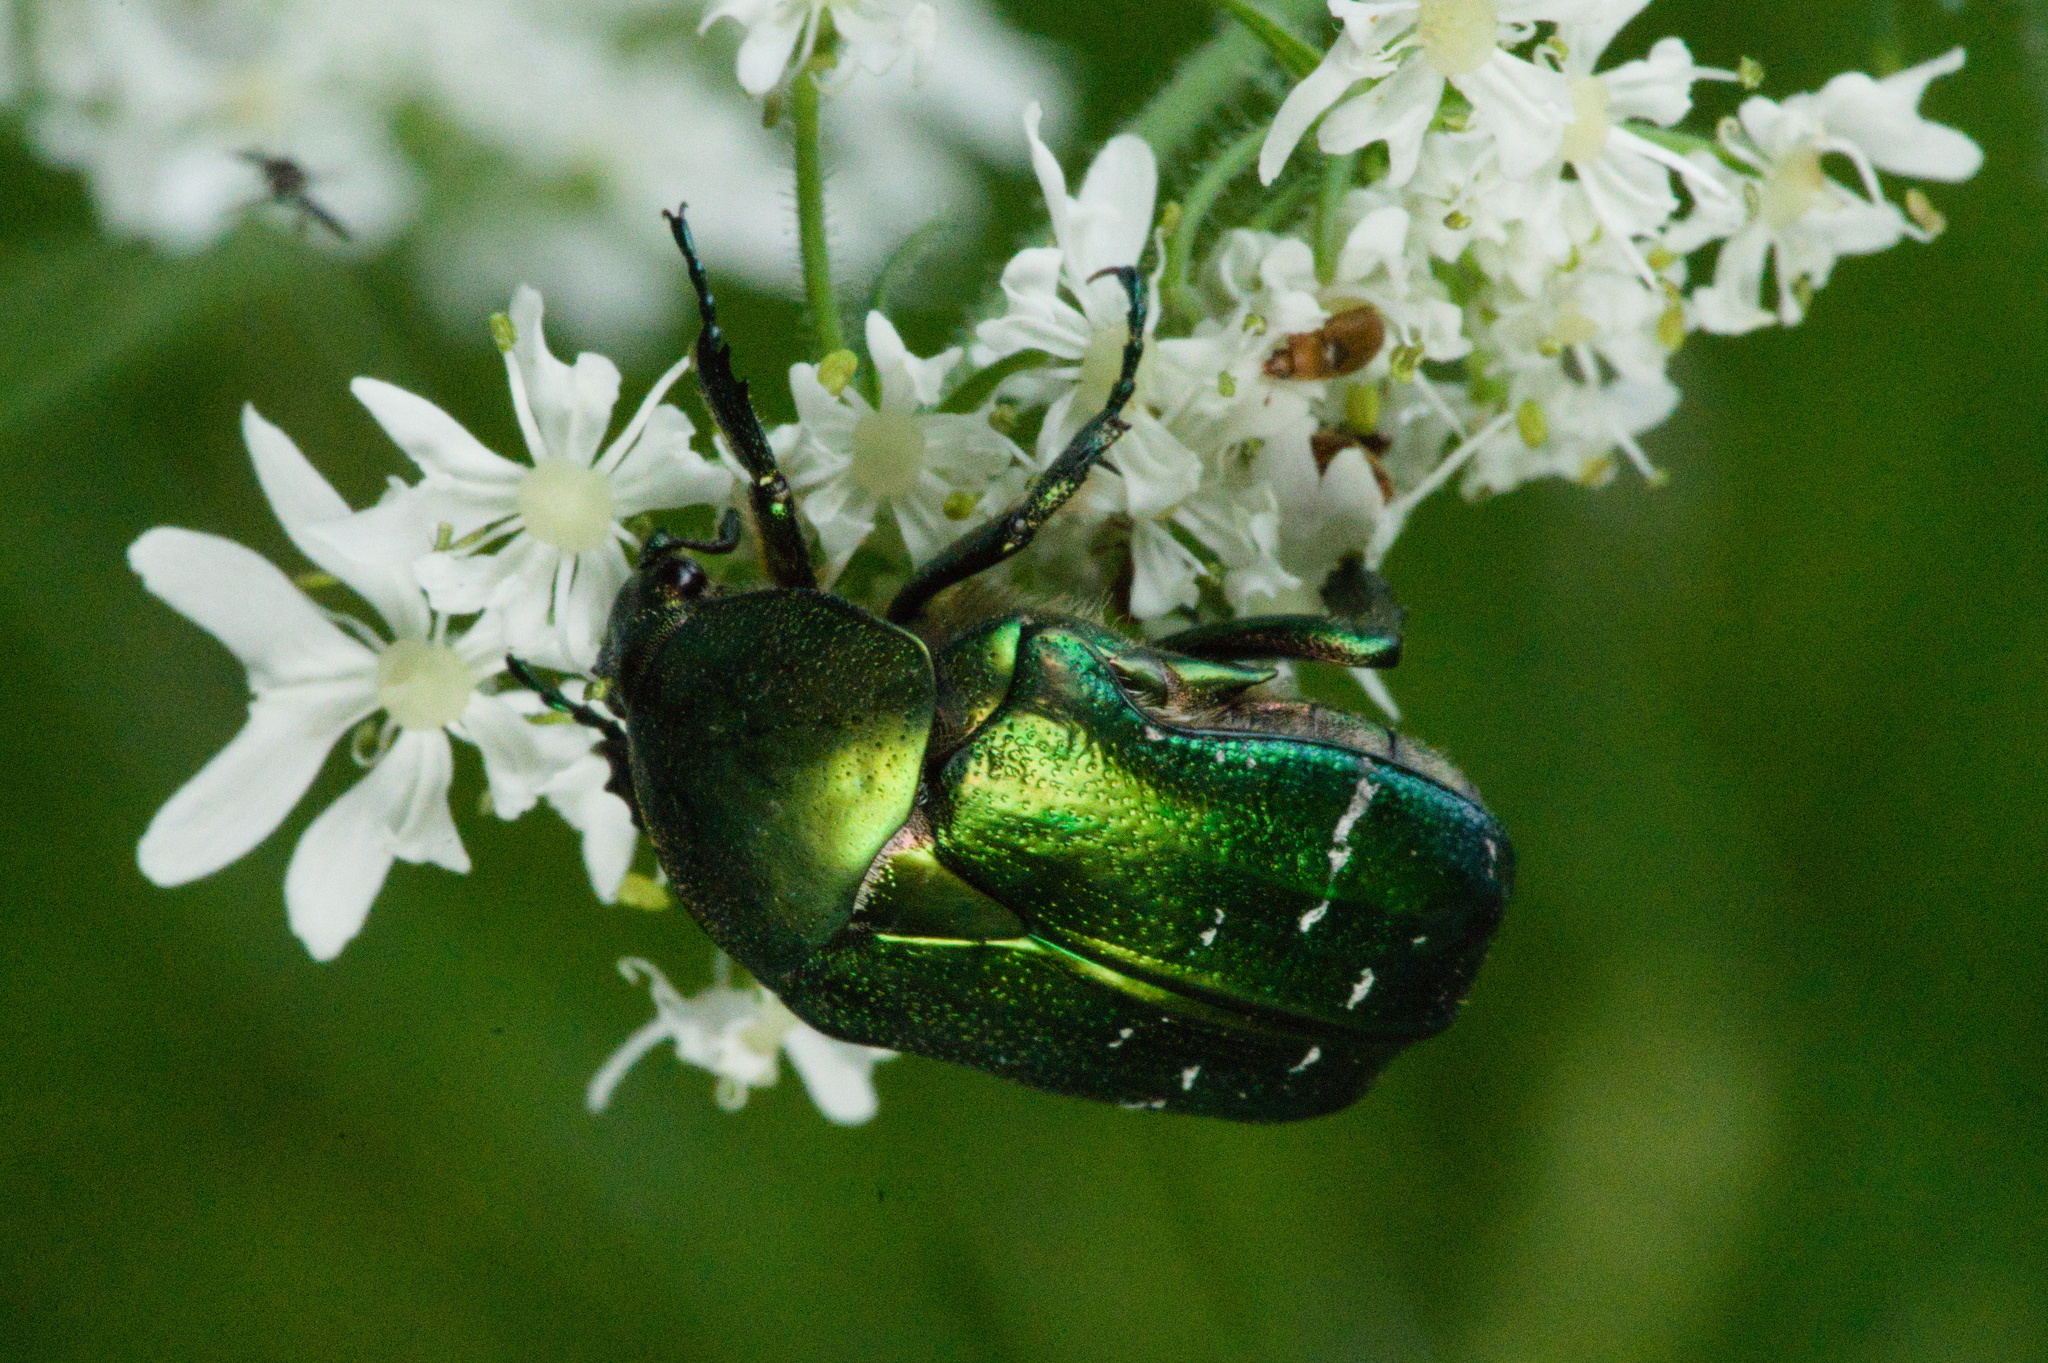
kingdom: Animalia
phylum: Arthropoda
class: Insecta
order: Coleoptera
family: Scarabaeidae
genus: Cetonia
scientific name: Cetonia aurata
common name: Rose chafer
